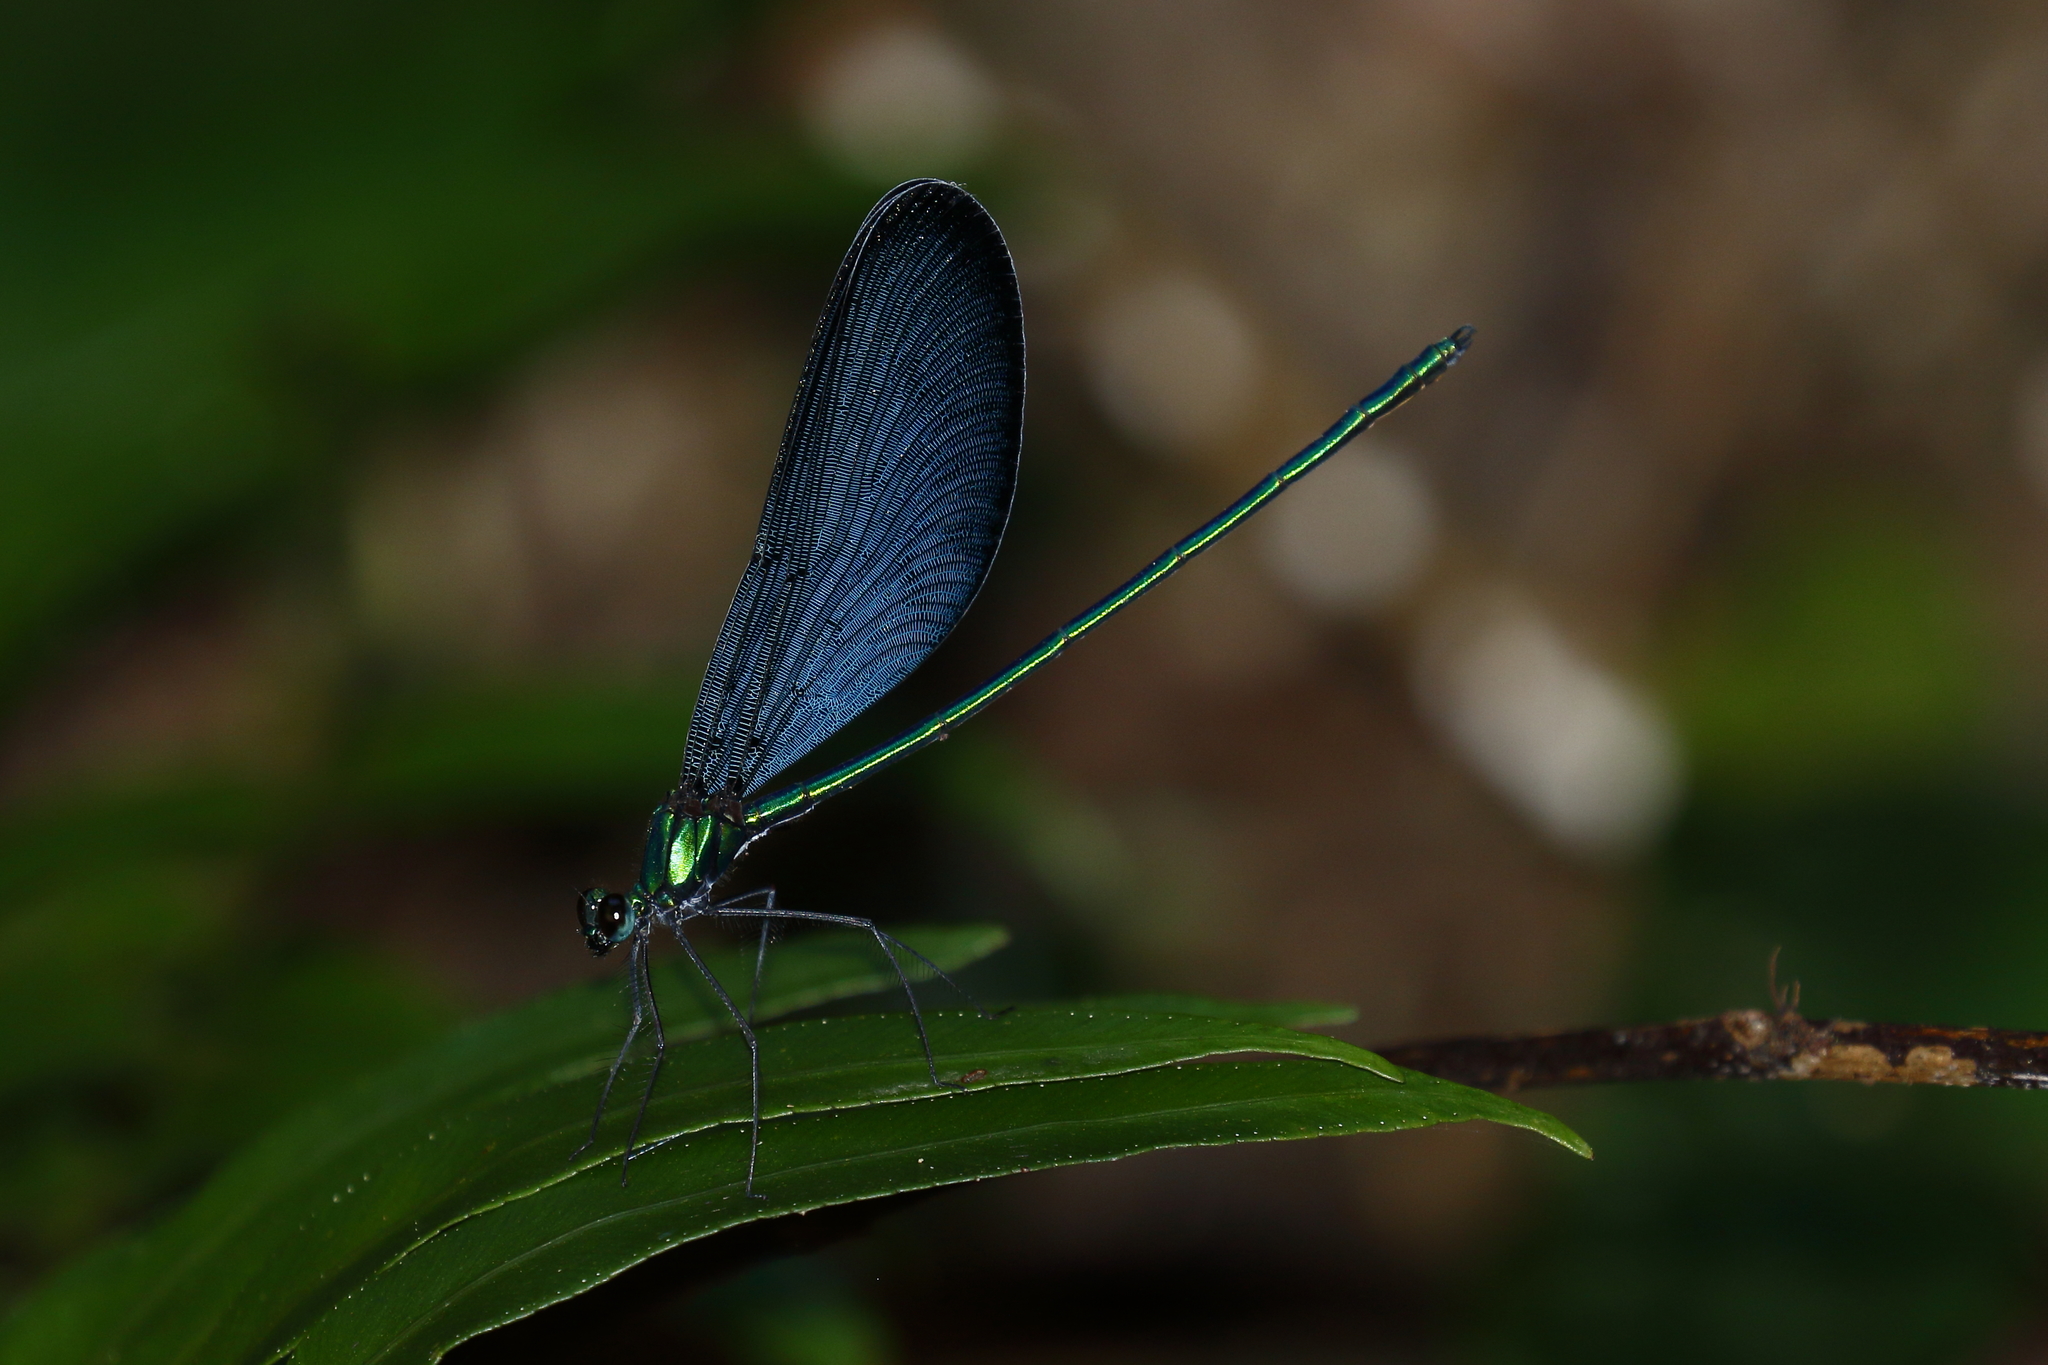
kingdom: Animalia
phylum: Arthropoda
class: Insecta
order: Odonata
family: Calopterygidae
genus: Matrona
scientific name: Matrona cyanoptera
